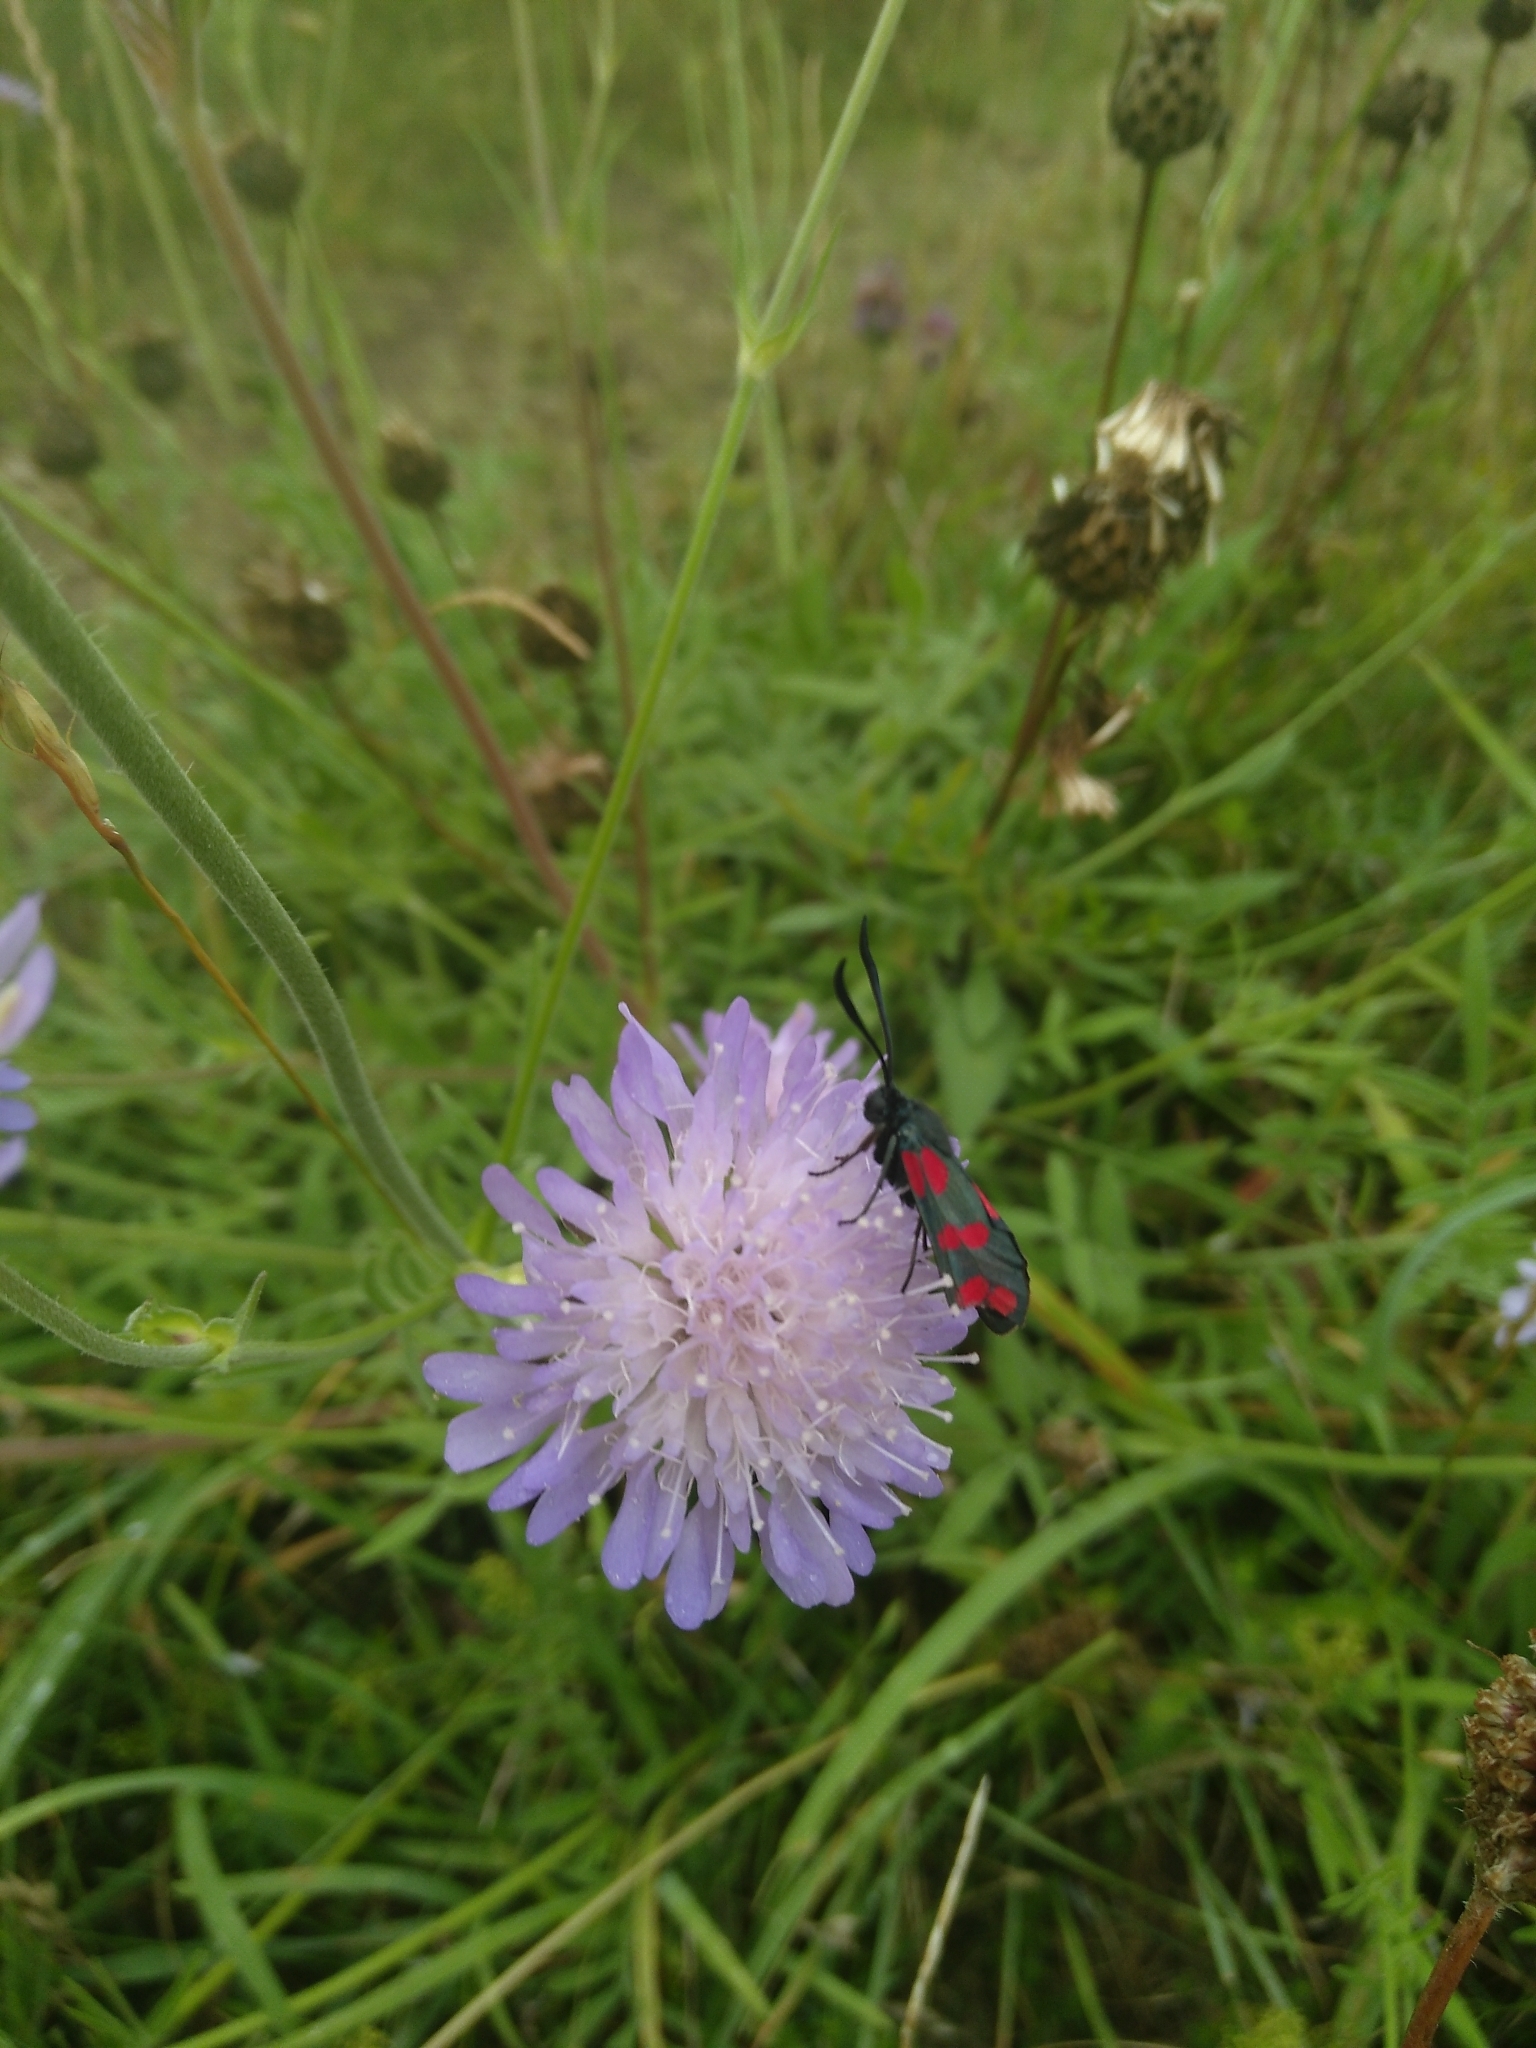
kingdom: Animalia
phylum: Arthropoda
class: Insecta
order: Lepidoptera
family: Zygaenidae
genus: Zygaena
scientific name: Zygaena filipendulae
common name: Six-spot burnet
